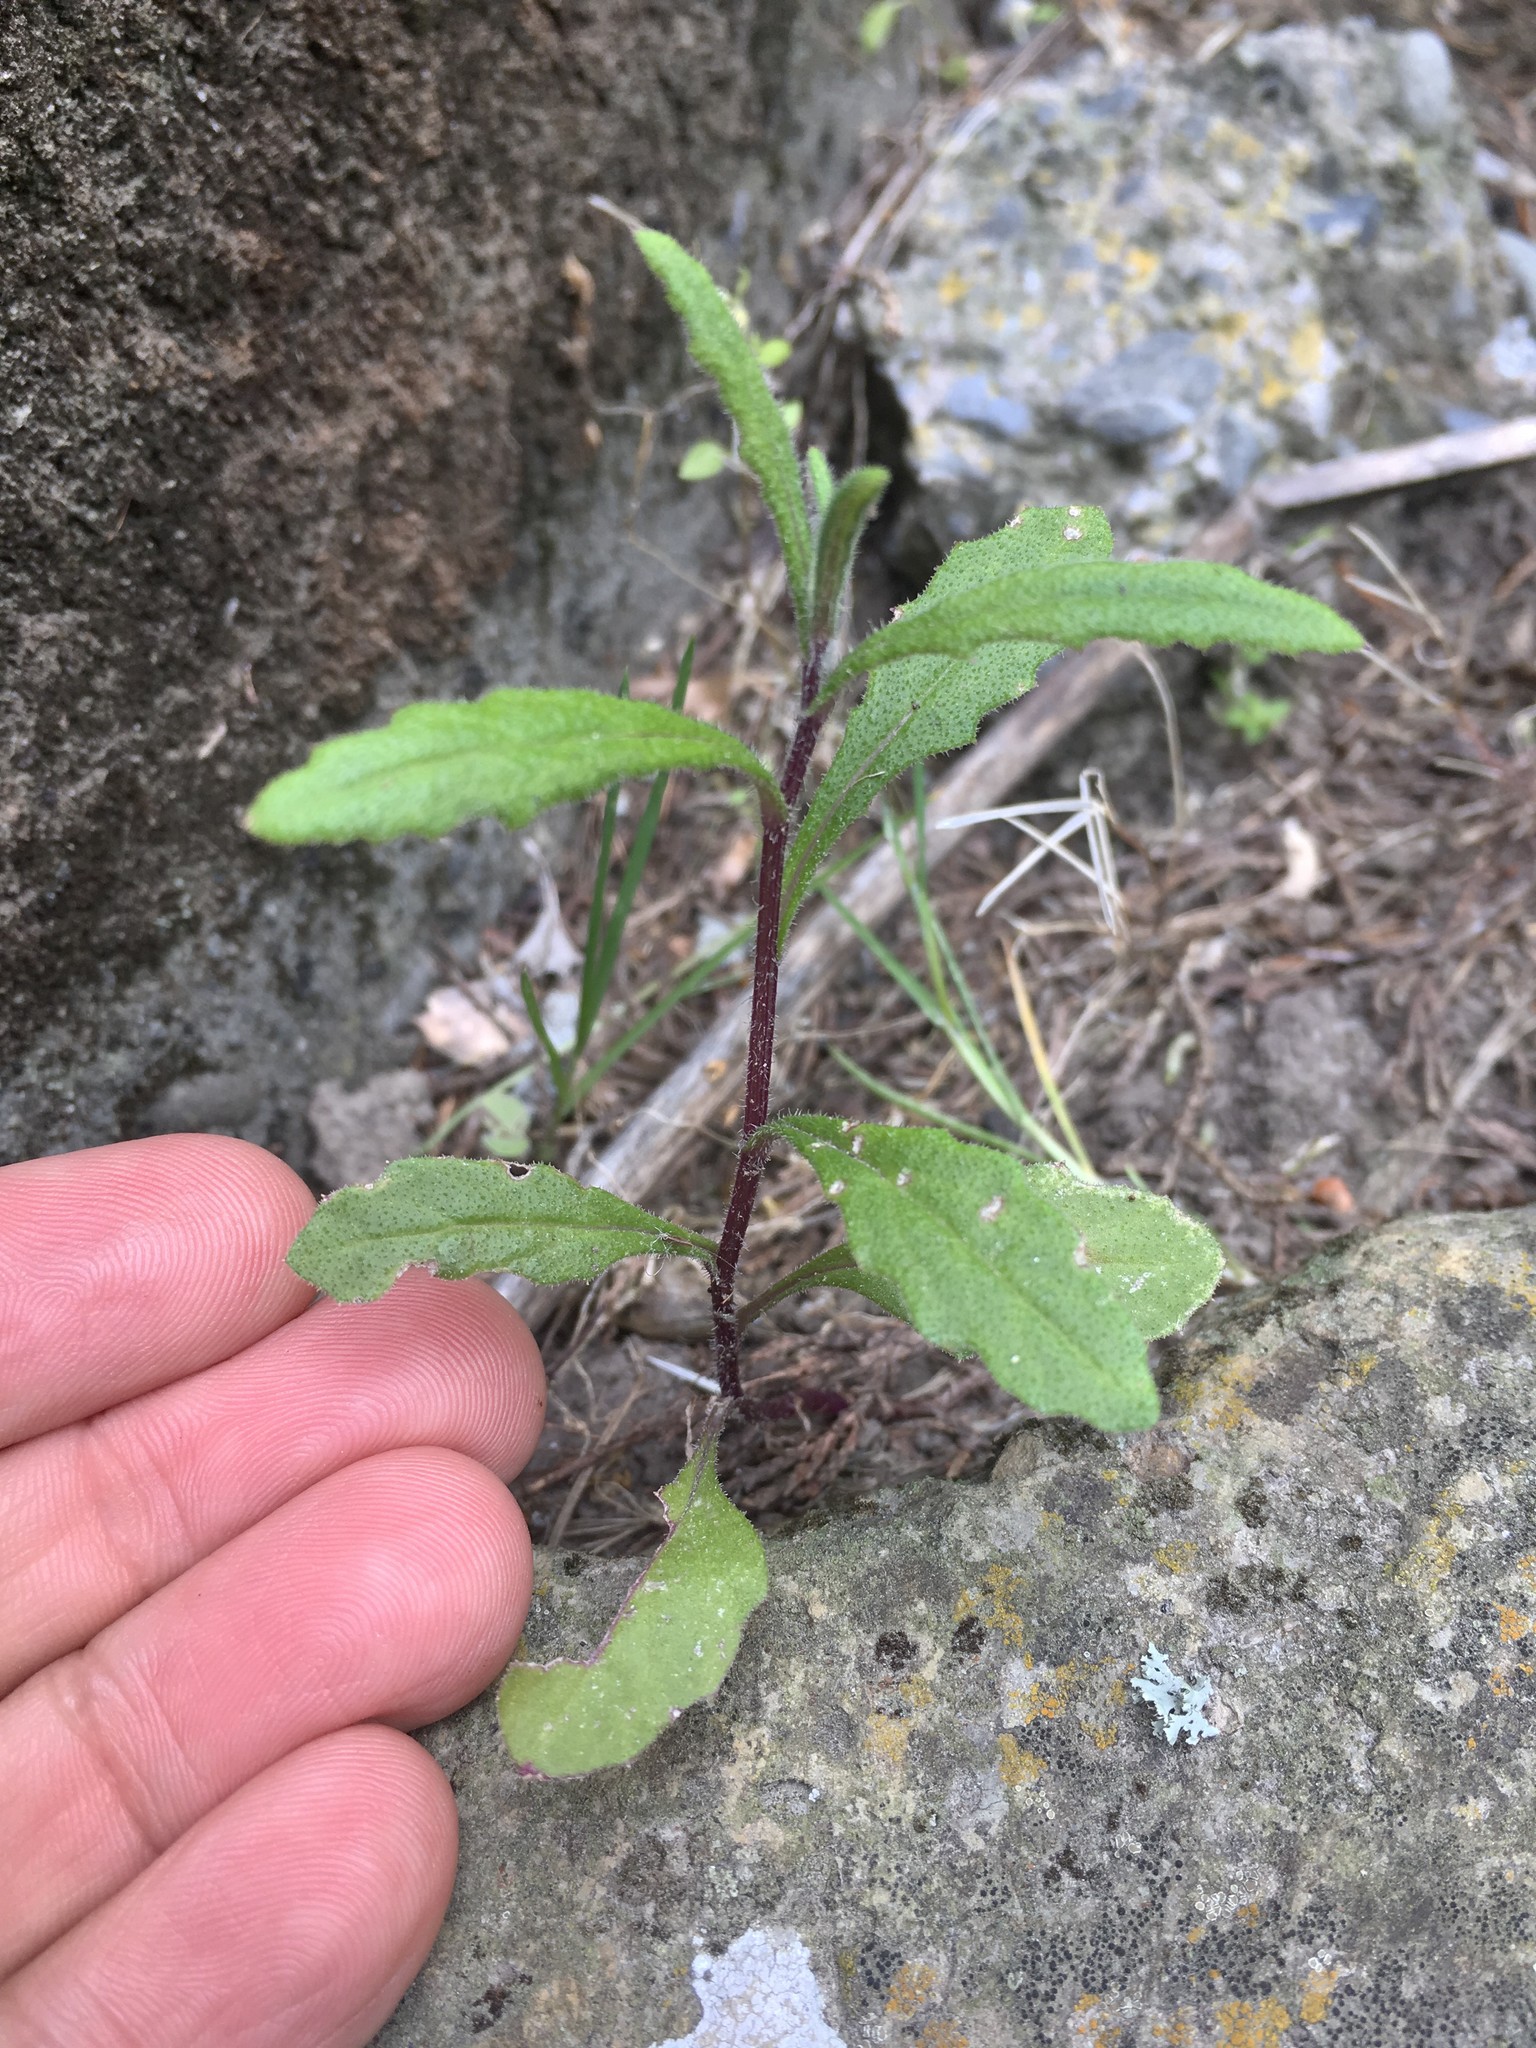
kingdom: Plantae
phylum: Tracheophyta
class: Magnoliopsida
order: Asterales
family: Asteraceae
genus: Senecio
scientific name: Senecio hispidulus
